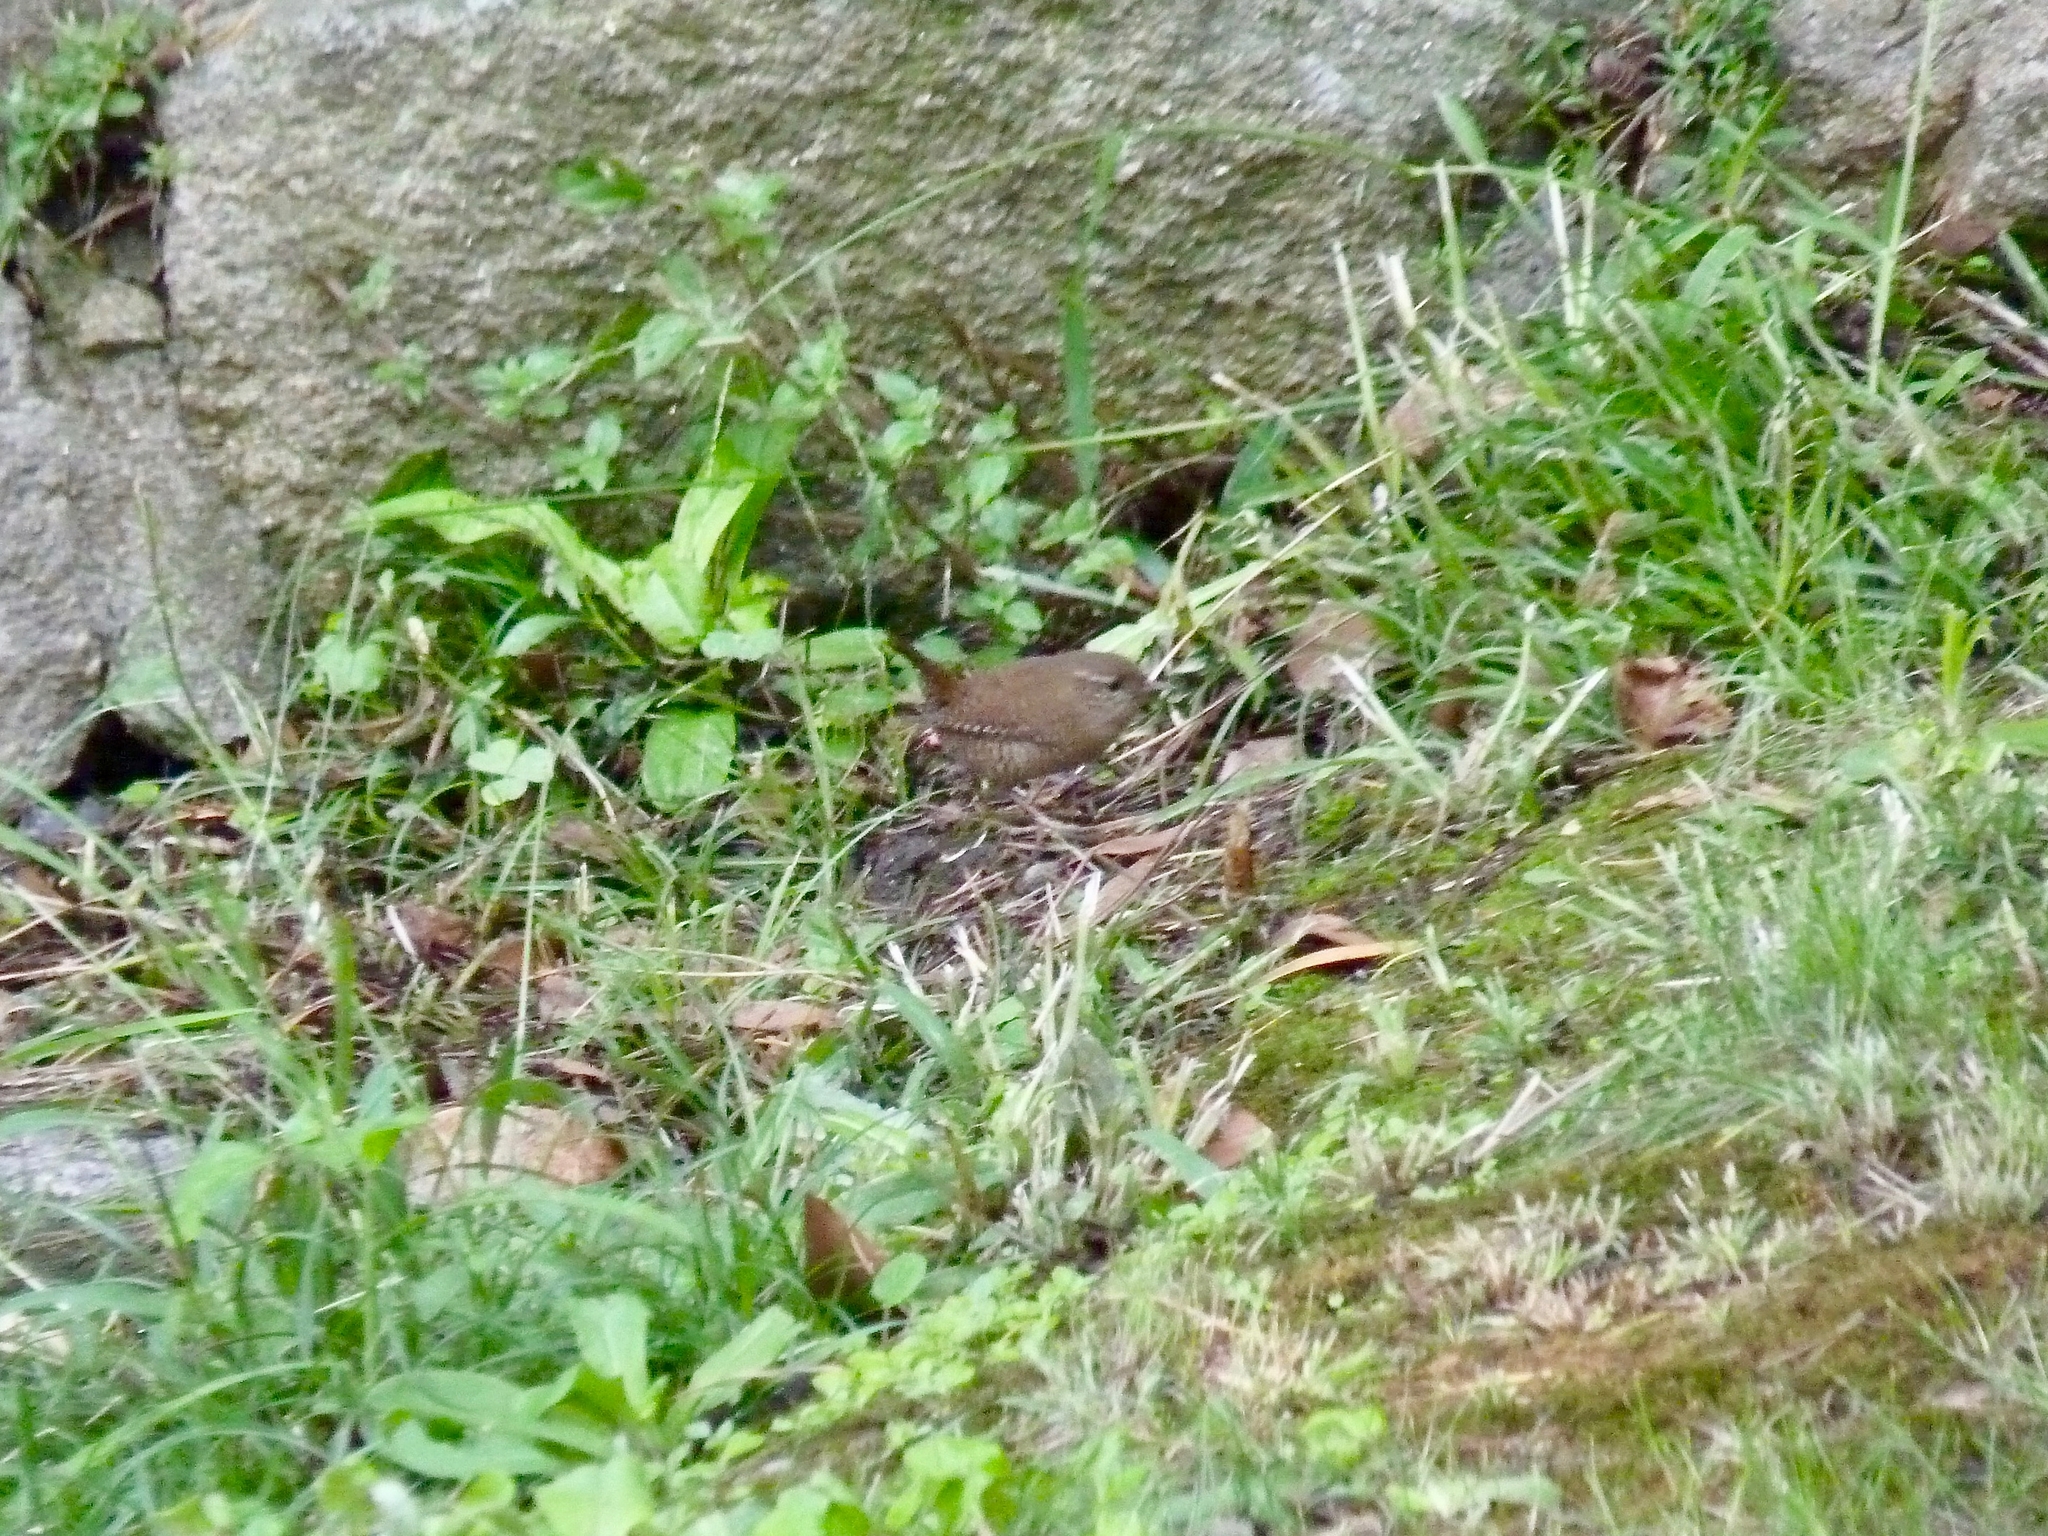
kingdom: Animalia
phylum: Chordata
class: Aves
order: Passeriformes
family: Troglodytidae
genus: Troglodytes
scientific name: Troglodytes troglodytes
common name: Eurasian wren
